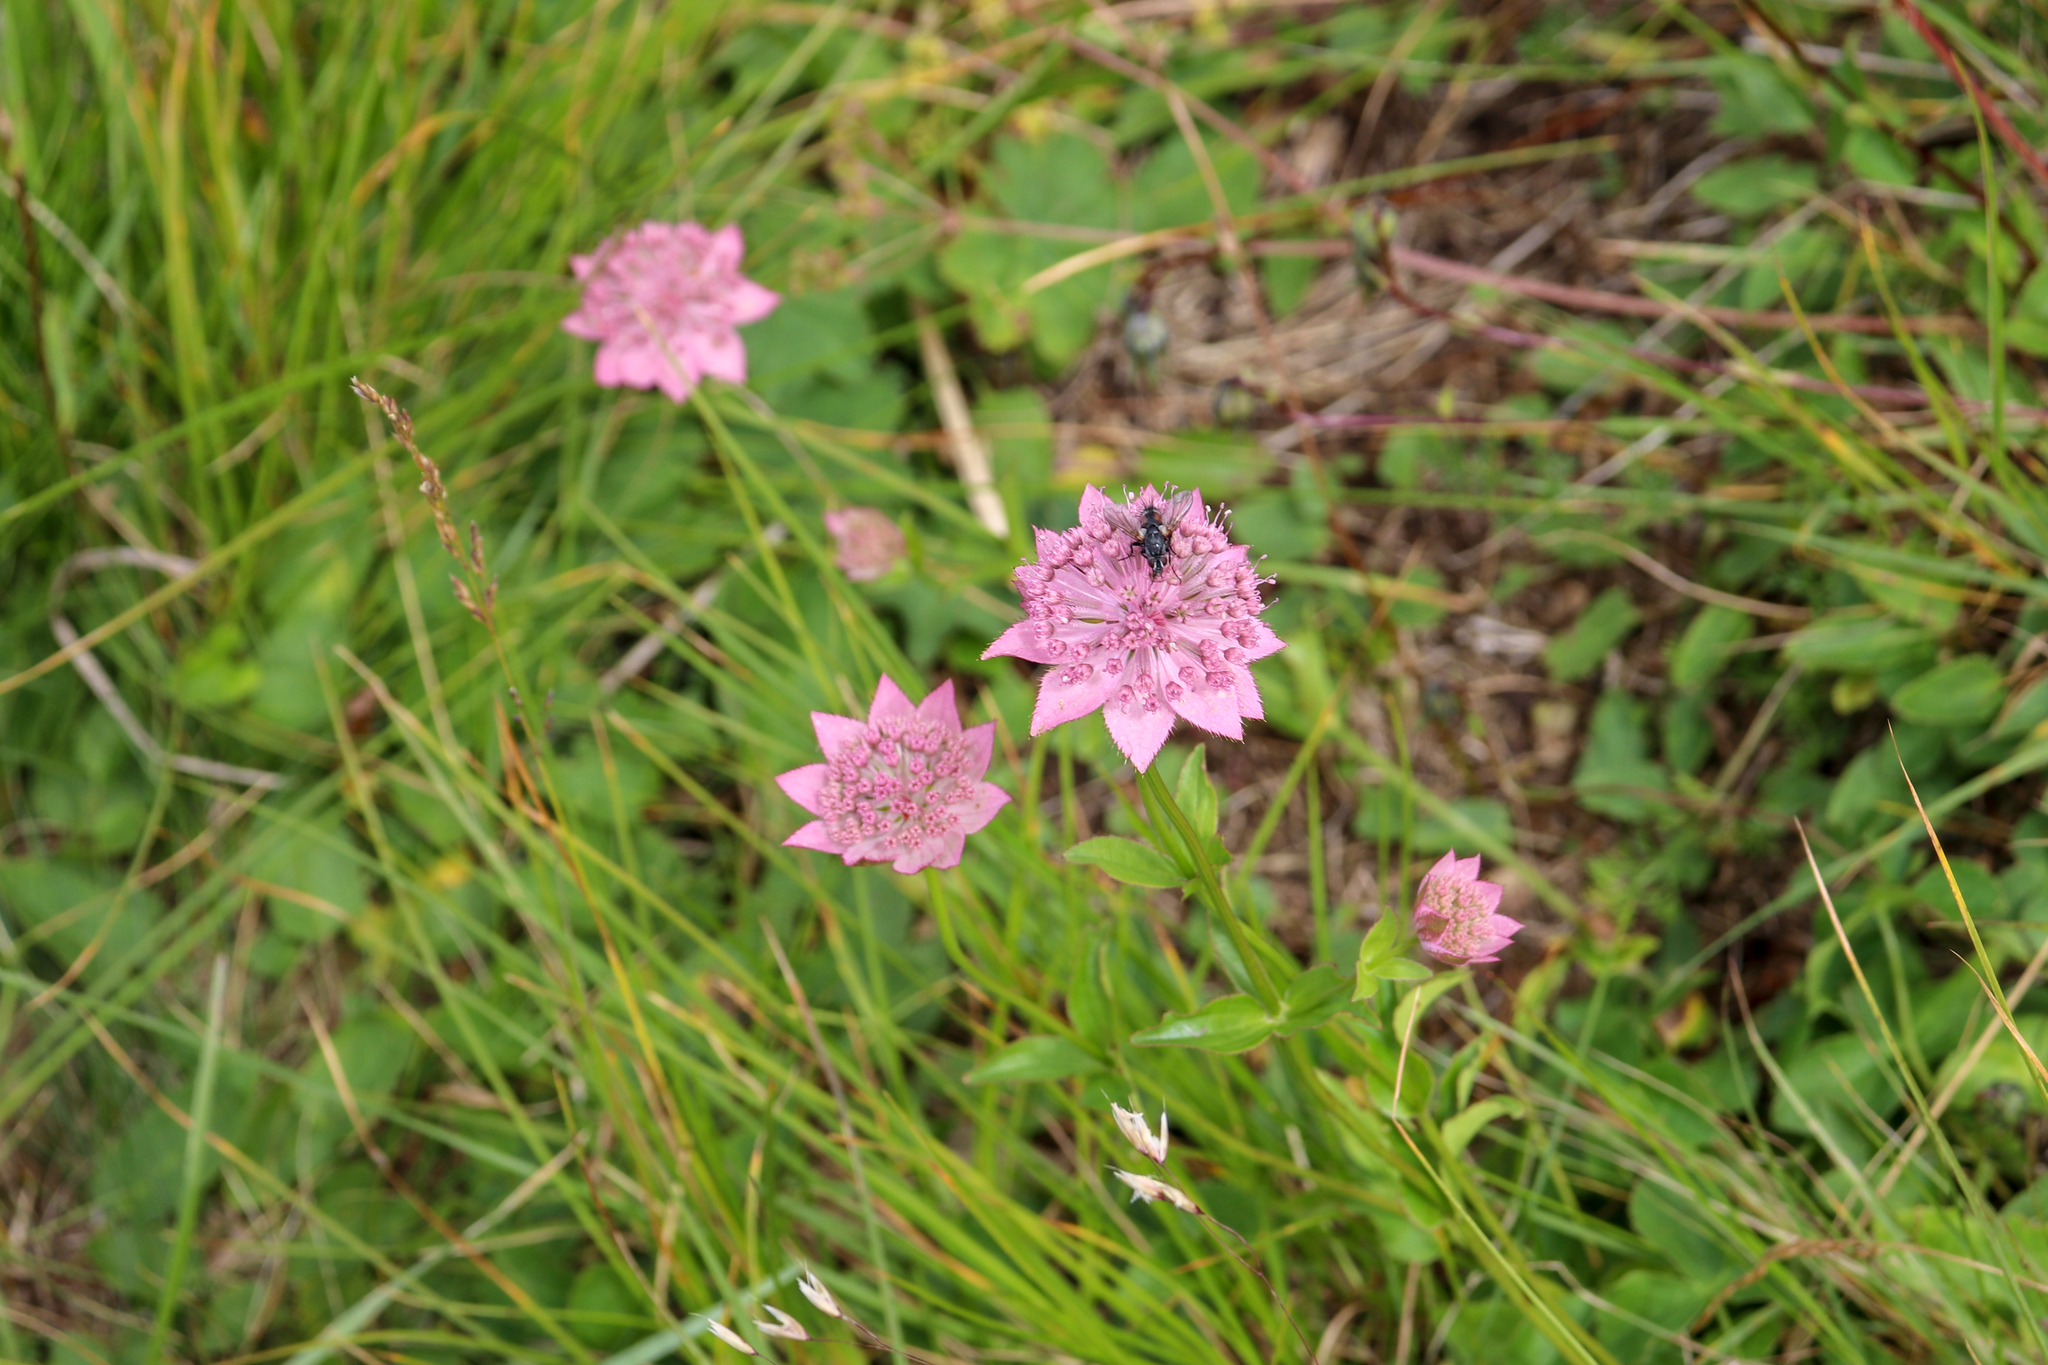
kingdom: Plantae
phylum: Tracheophyta
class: Magnoliopsida
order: Apiales
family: Apiaceae
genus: Astrantia
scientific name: Astrantia maxima
